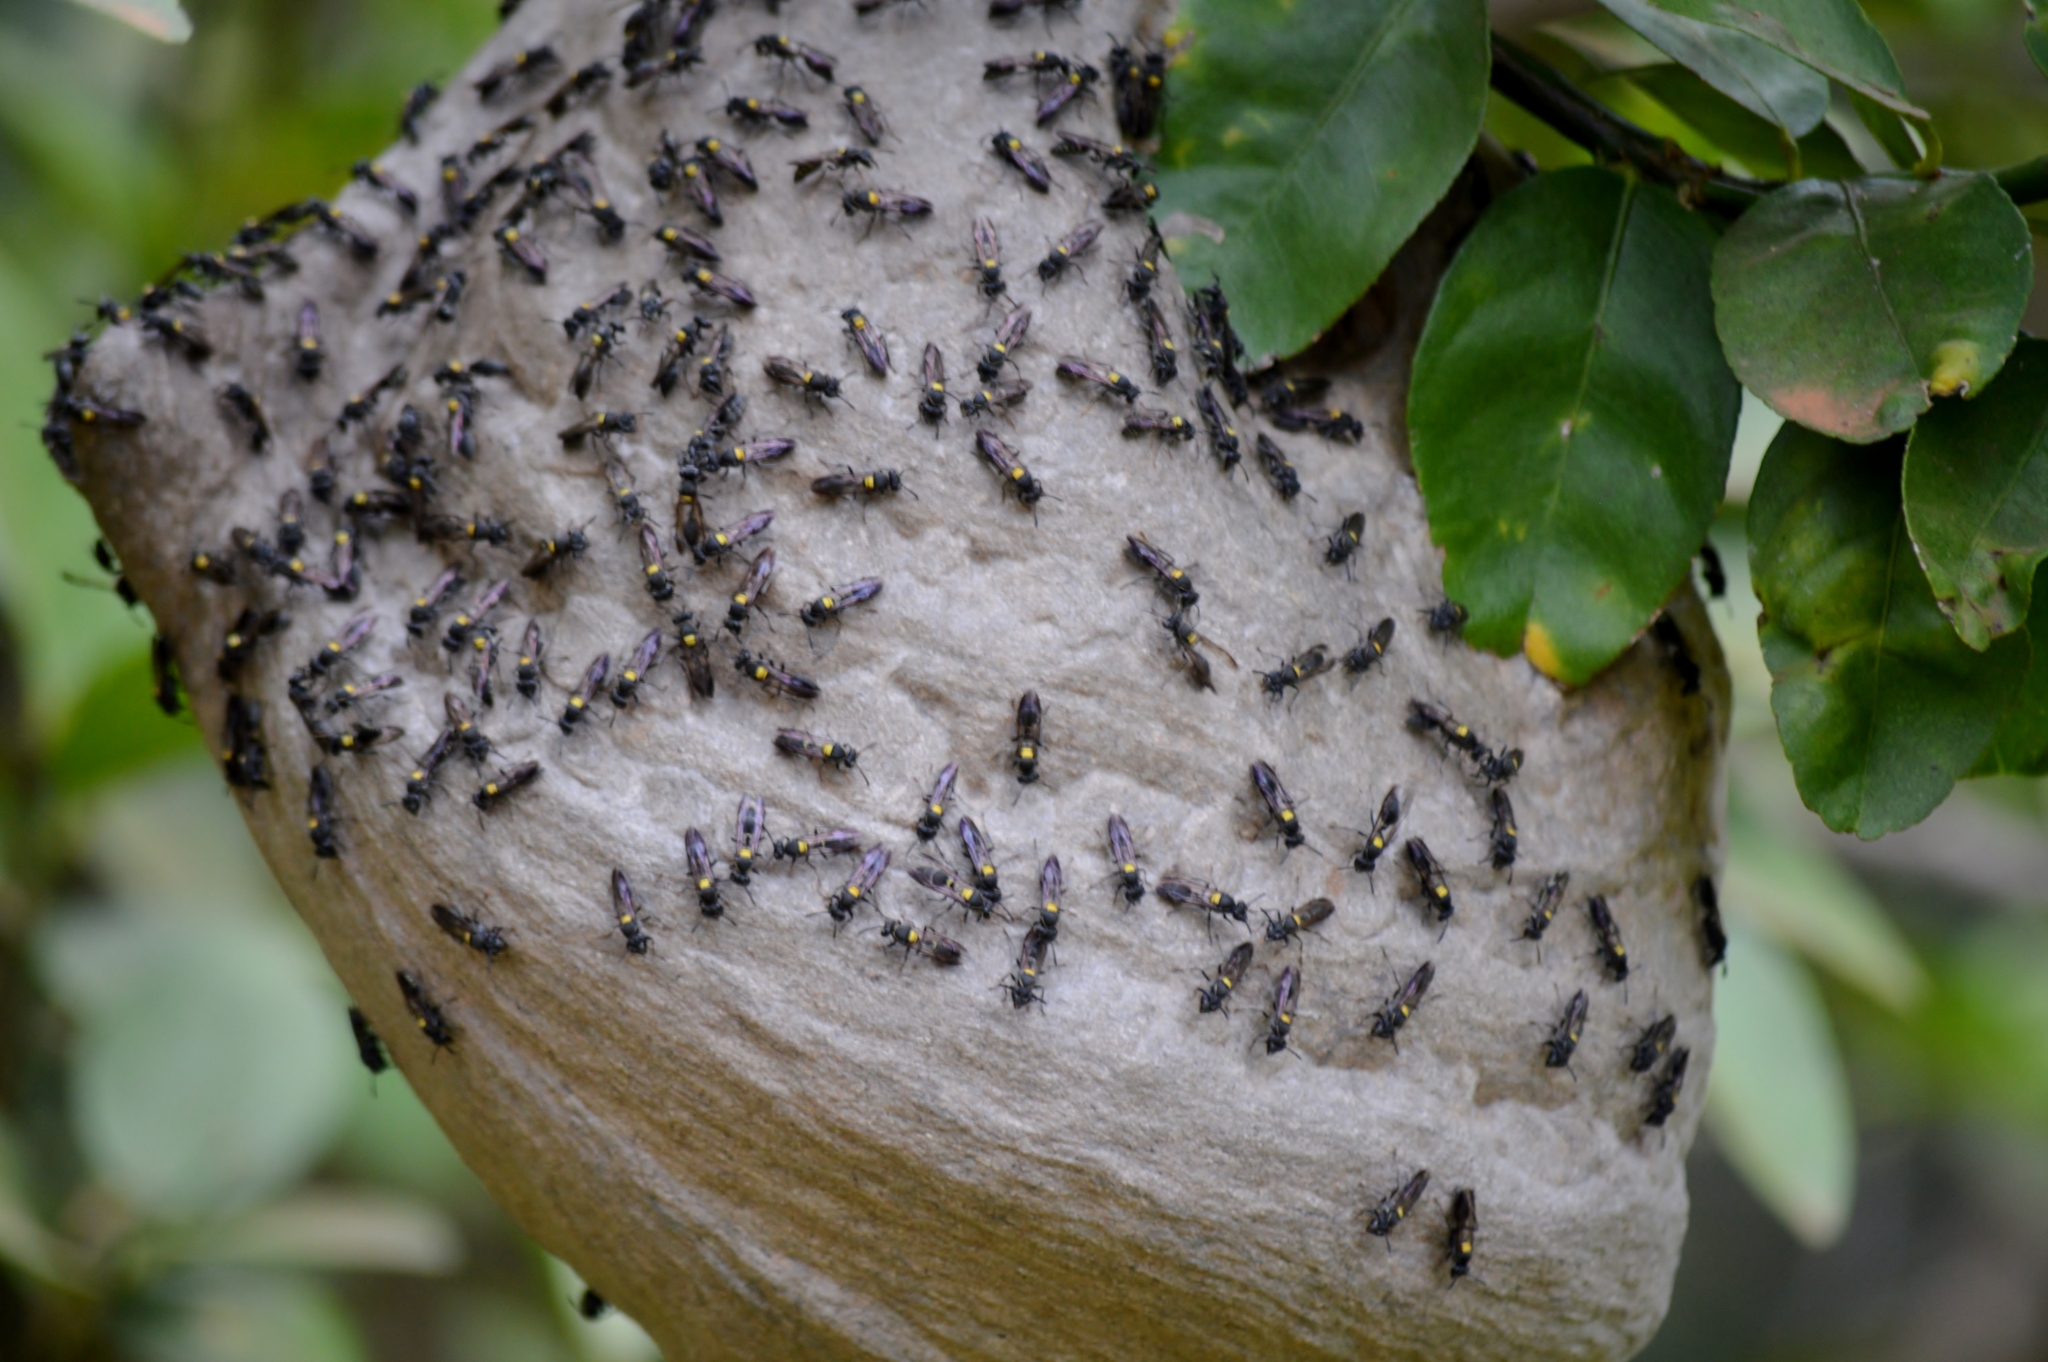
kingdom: Animalia
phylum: Arthropoda
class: Insecta
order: Hymenoptera
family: Eumenidae
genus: Polybia
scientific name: Polybia paulista
